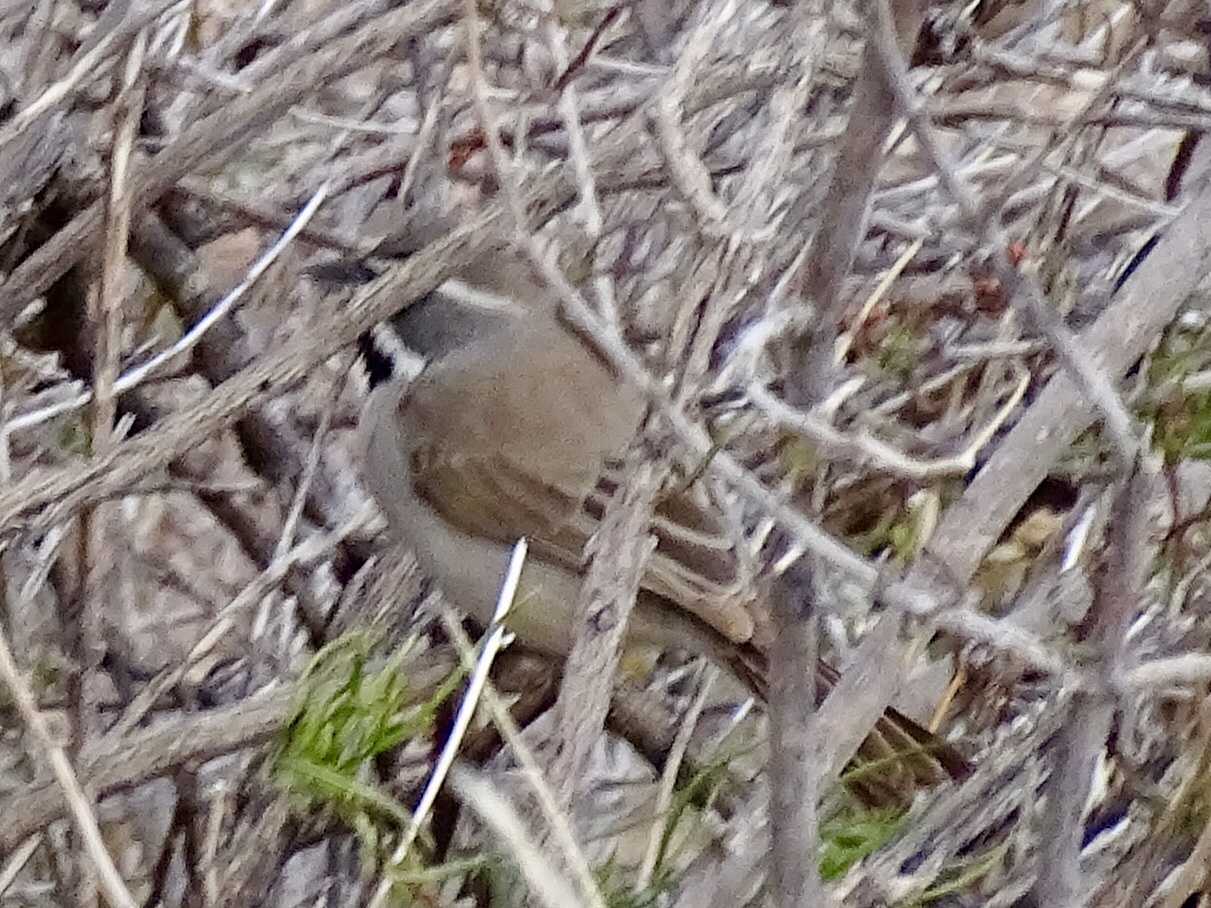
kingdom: Animalia
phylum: Chordata
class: Aves
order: Passeriformes
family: Passerellidae
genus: Amphispiza
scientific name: Amphispiza bilineata
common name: Black-throated sparrow
